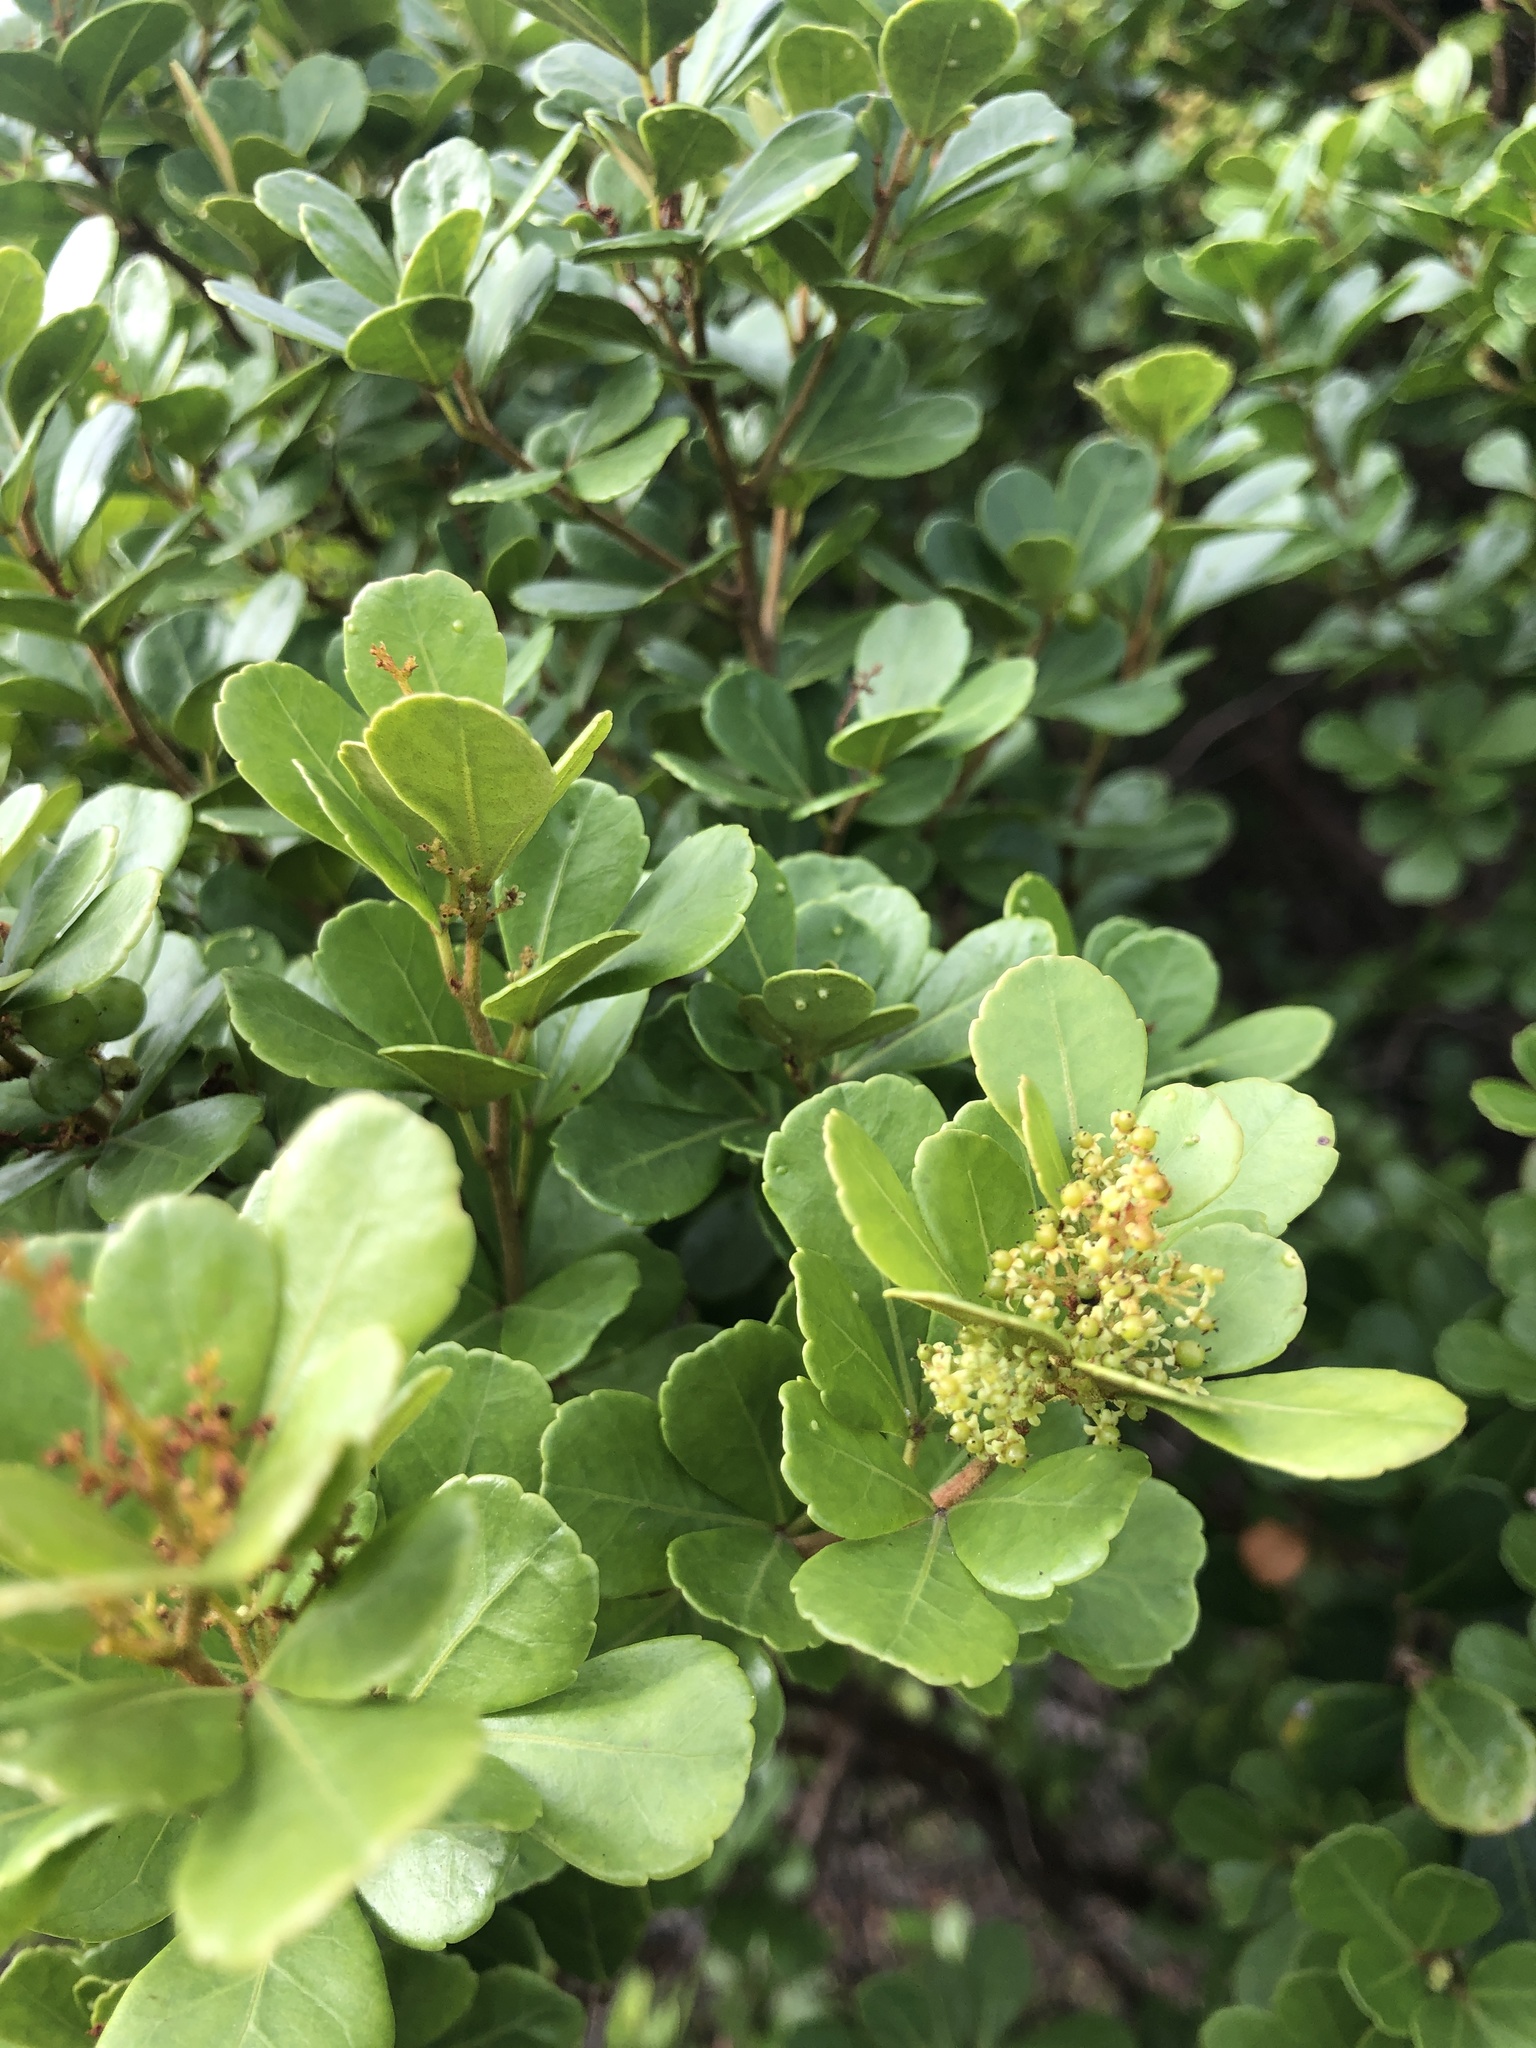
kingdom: Plantae
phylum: Tracheophyta
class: Magnoliopsida
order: Sapindales
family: Anacardiaceae
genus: Searsia
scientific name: Searsia crenata
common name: Crowberry
